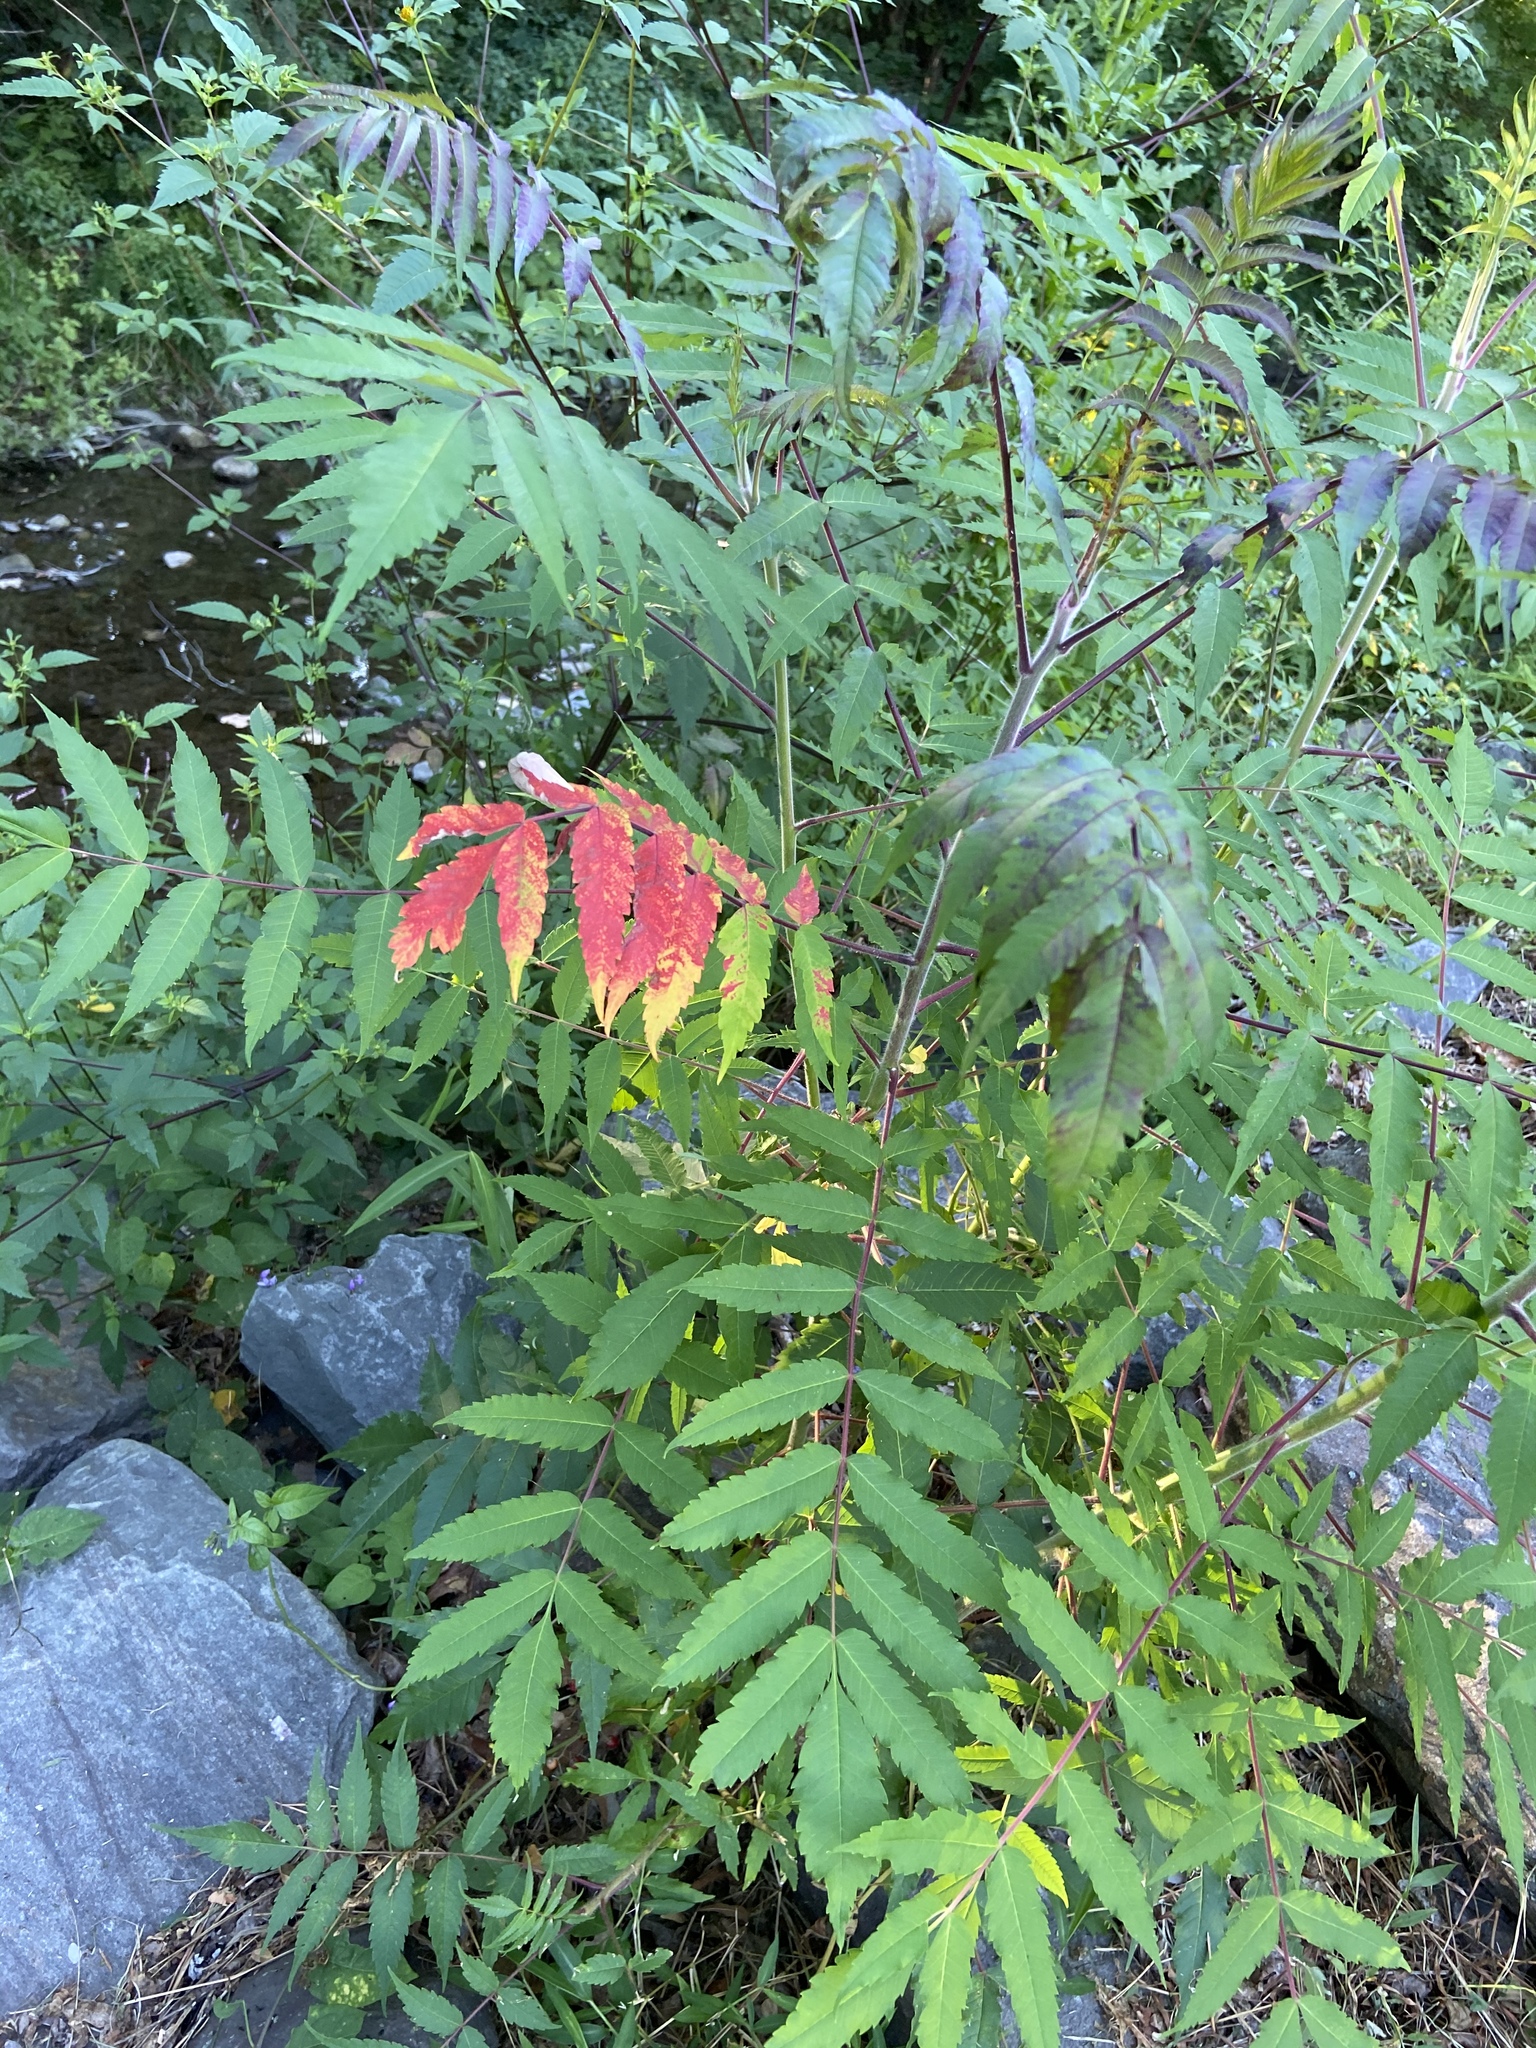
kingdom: Plantae
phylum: Tracheophyta
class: Magnoliopsida
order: Sapindales
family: Anacardiaceae
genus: Rhus
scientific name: Rhus typhina
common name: Staghorn sumac
